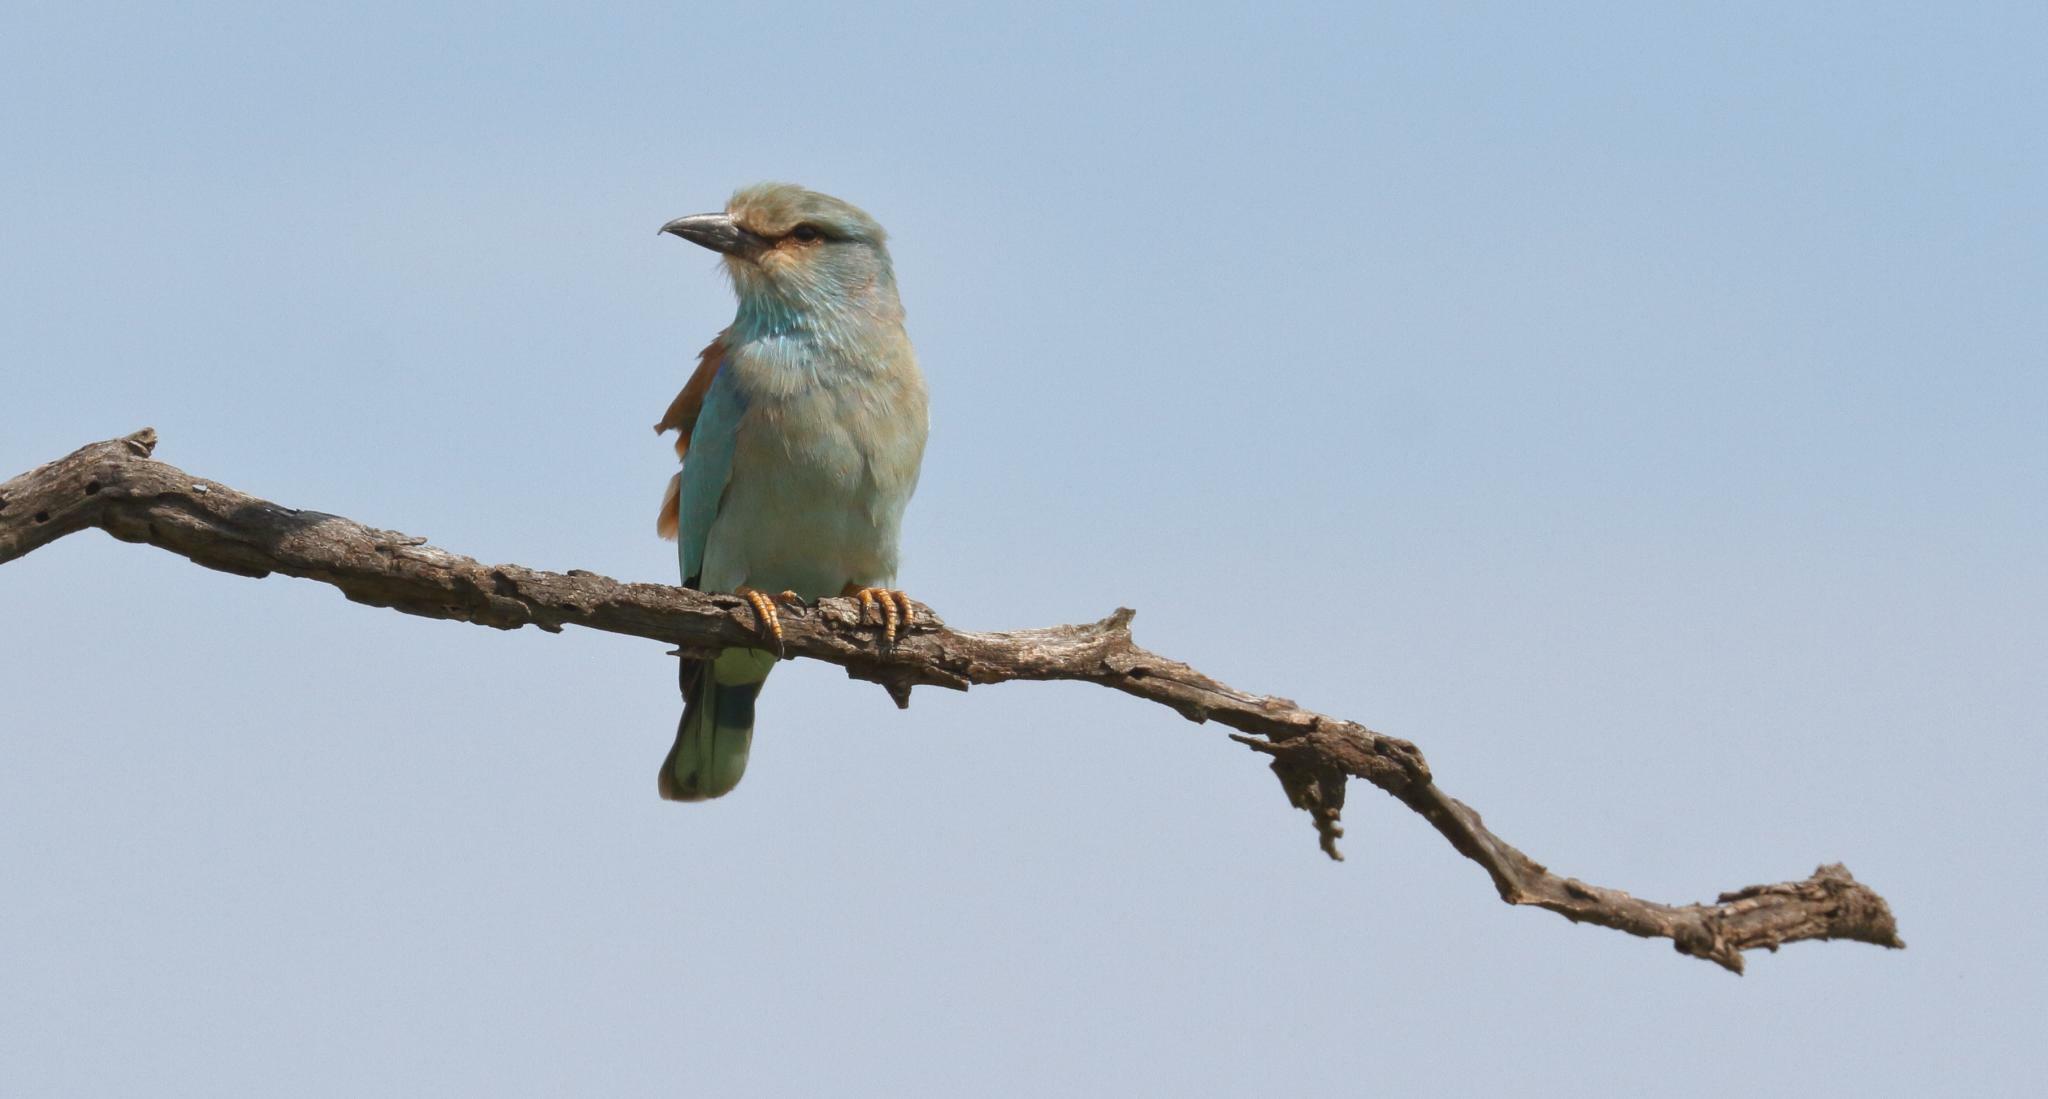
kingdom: Animalia
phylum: Chordata
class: Aves
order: Coraciiformes
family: Coraciidae
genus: Coracias
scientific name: Coracias garrulus
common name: European roller
